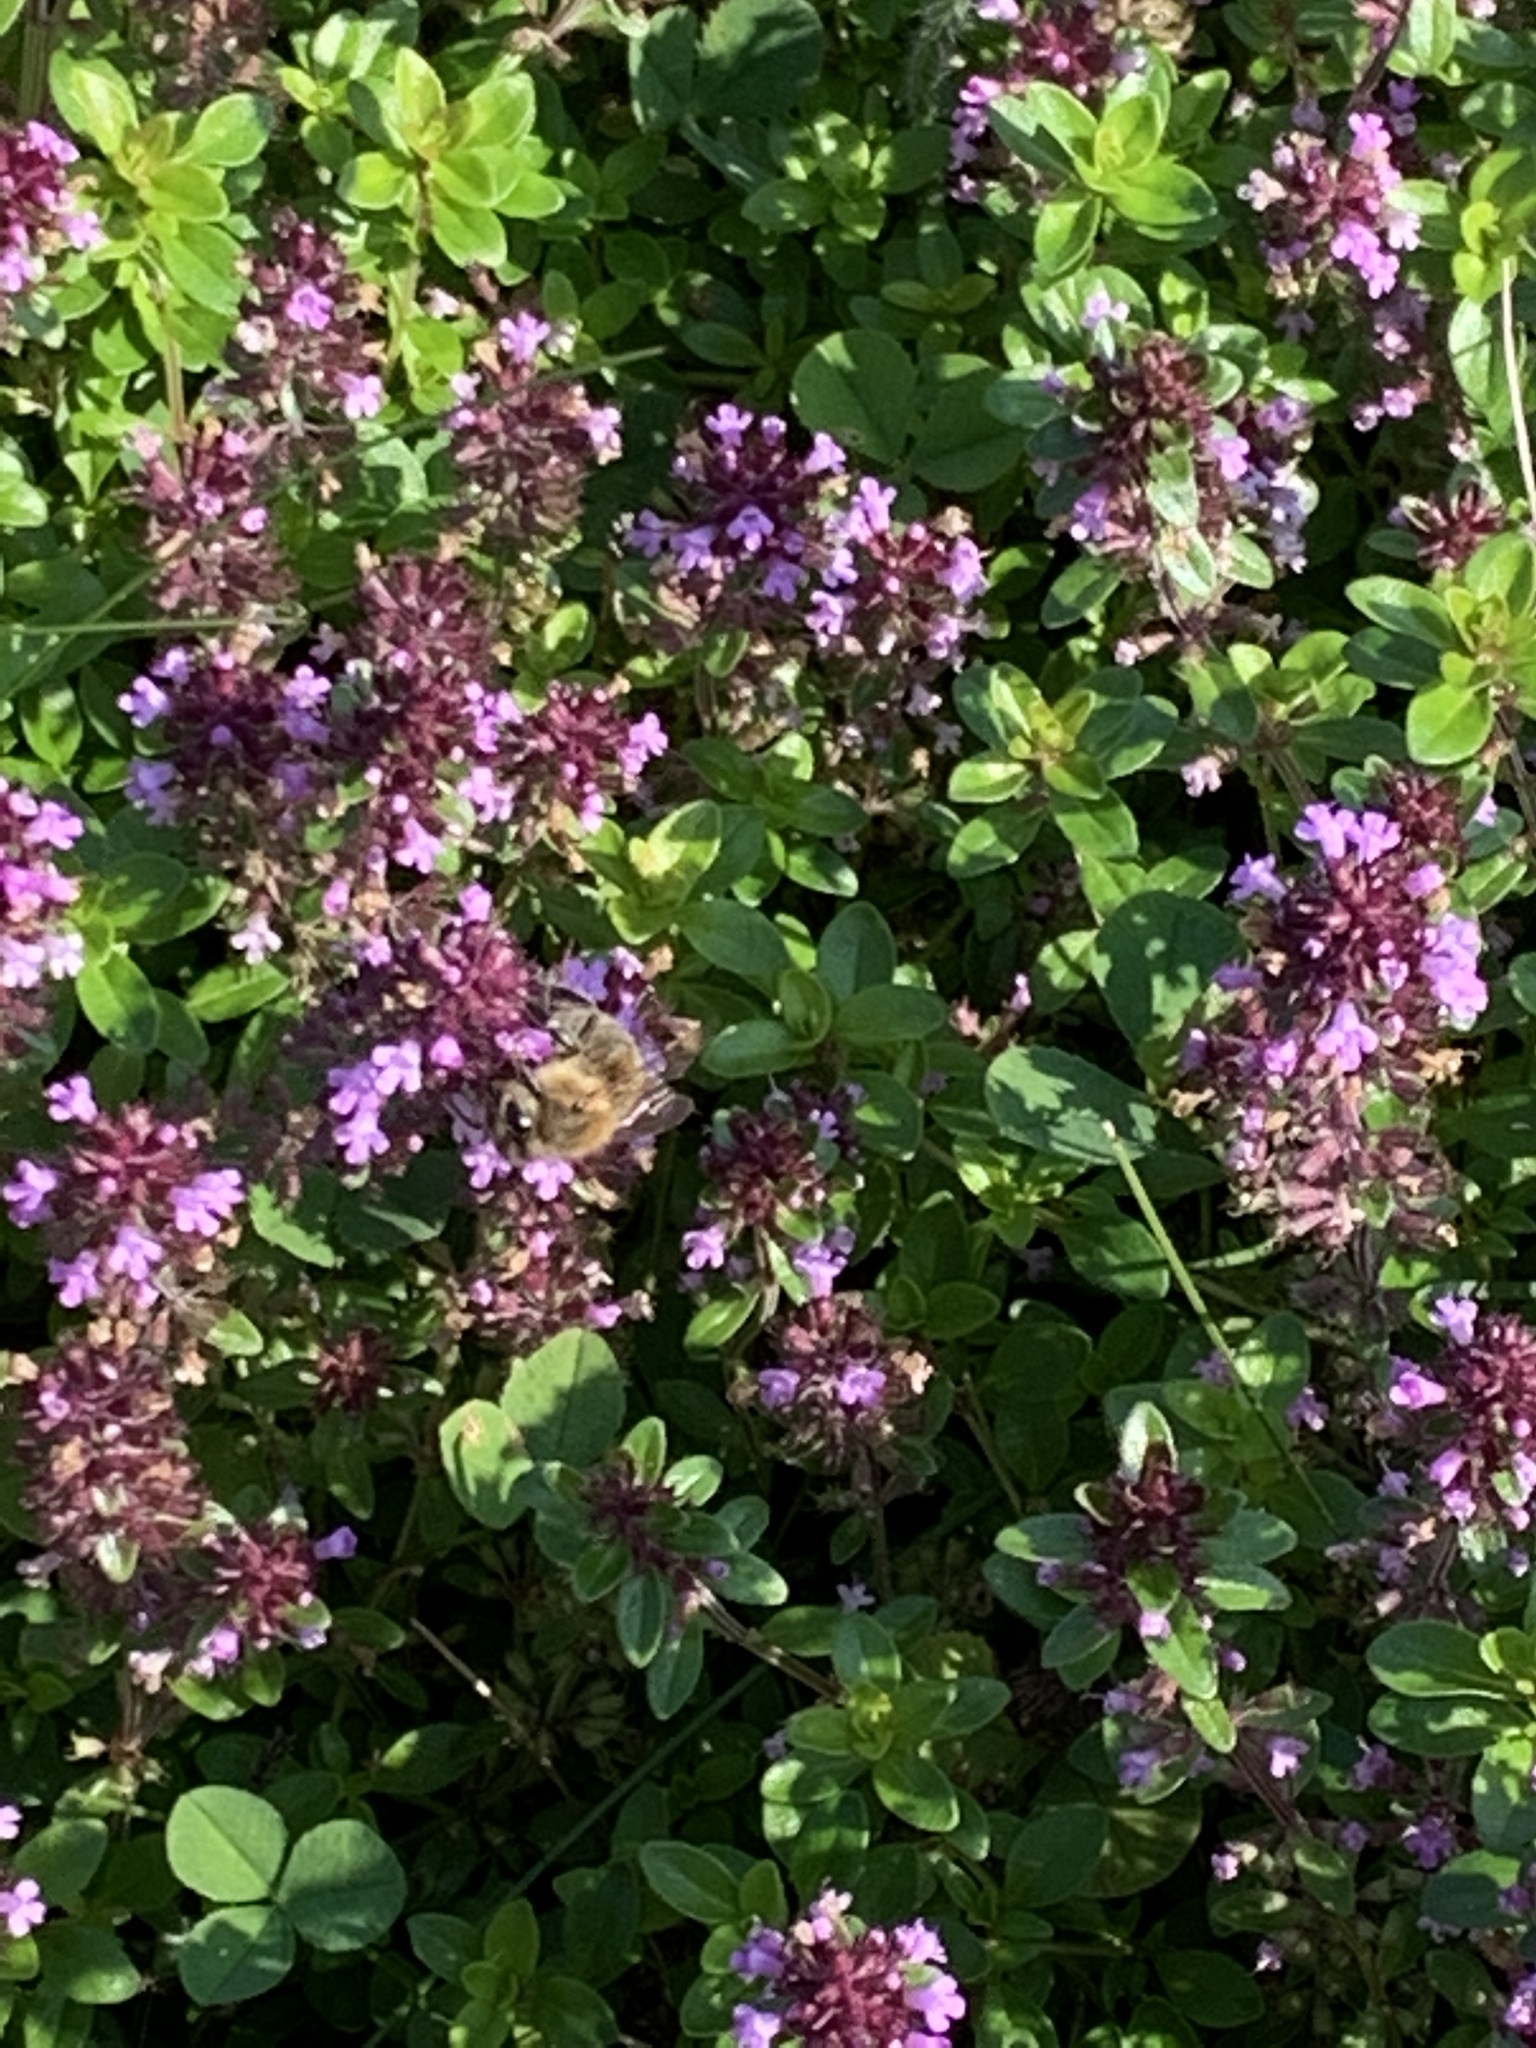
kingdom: Animalia
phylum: Arthropoda
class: Insecta
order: Hymenoptera
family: Apidae
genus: Apis
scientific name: Apis mellifera
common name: Honey bee
